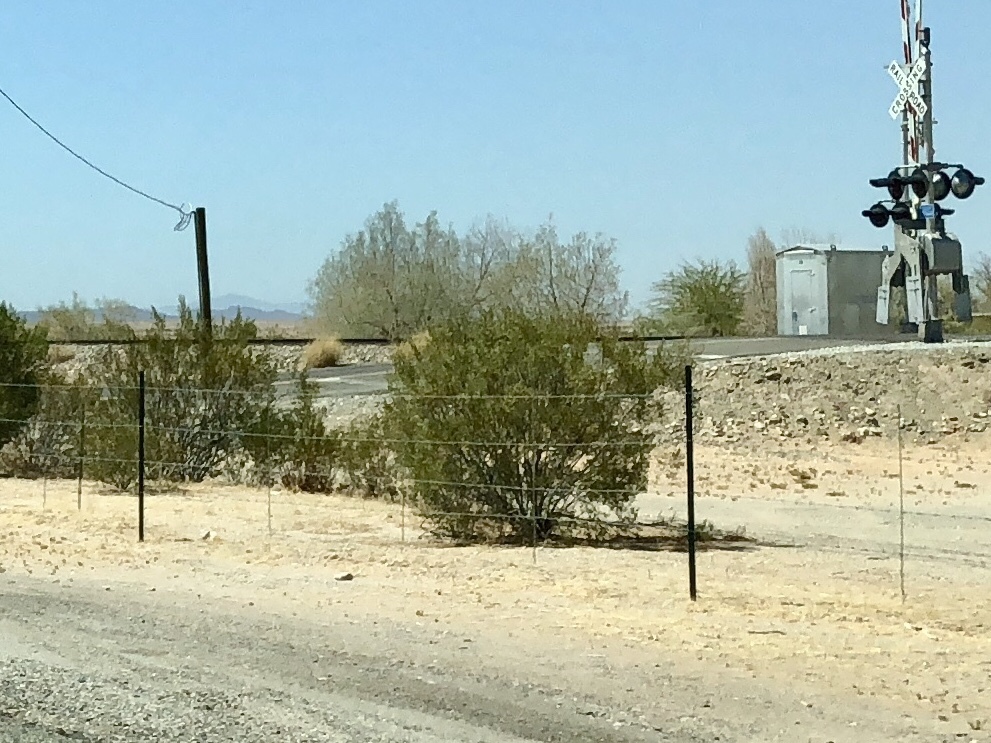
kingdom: Plantae
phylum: Tracheophyta
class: Magnoliopsida
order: Zygophyllales
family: Zygophyllaceae
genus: Larrea
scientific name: Larrea tridentata
